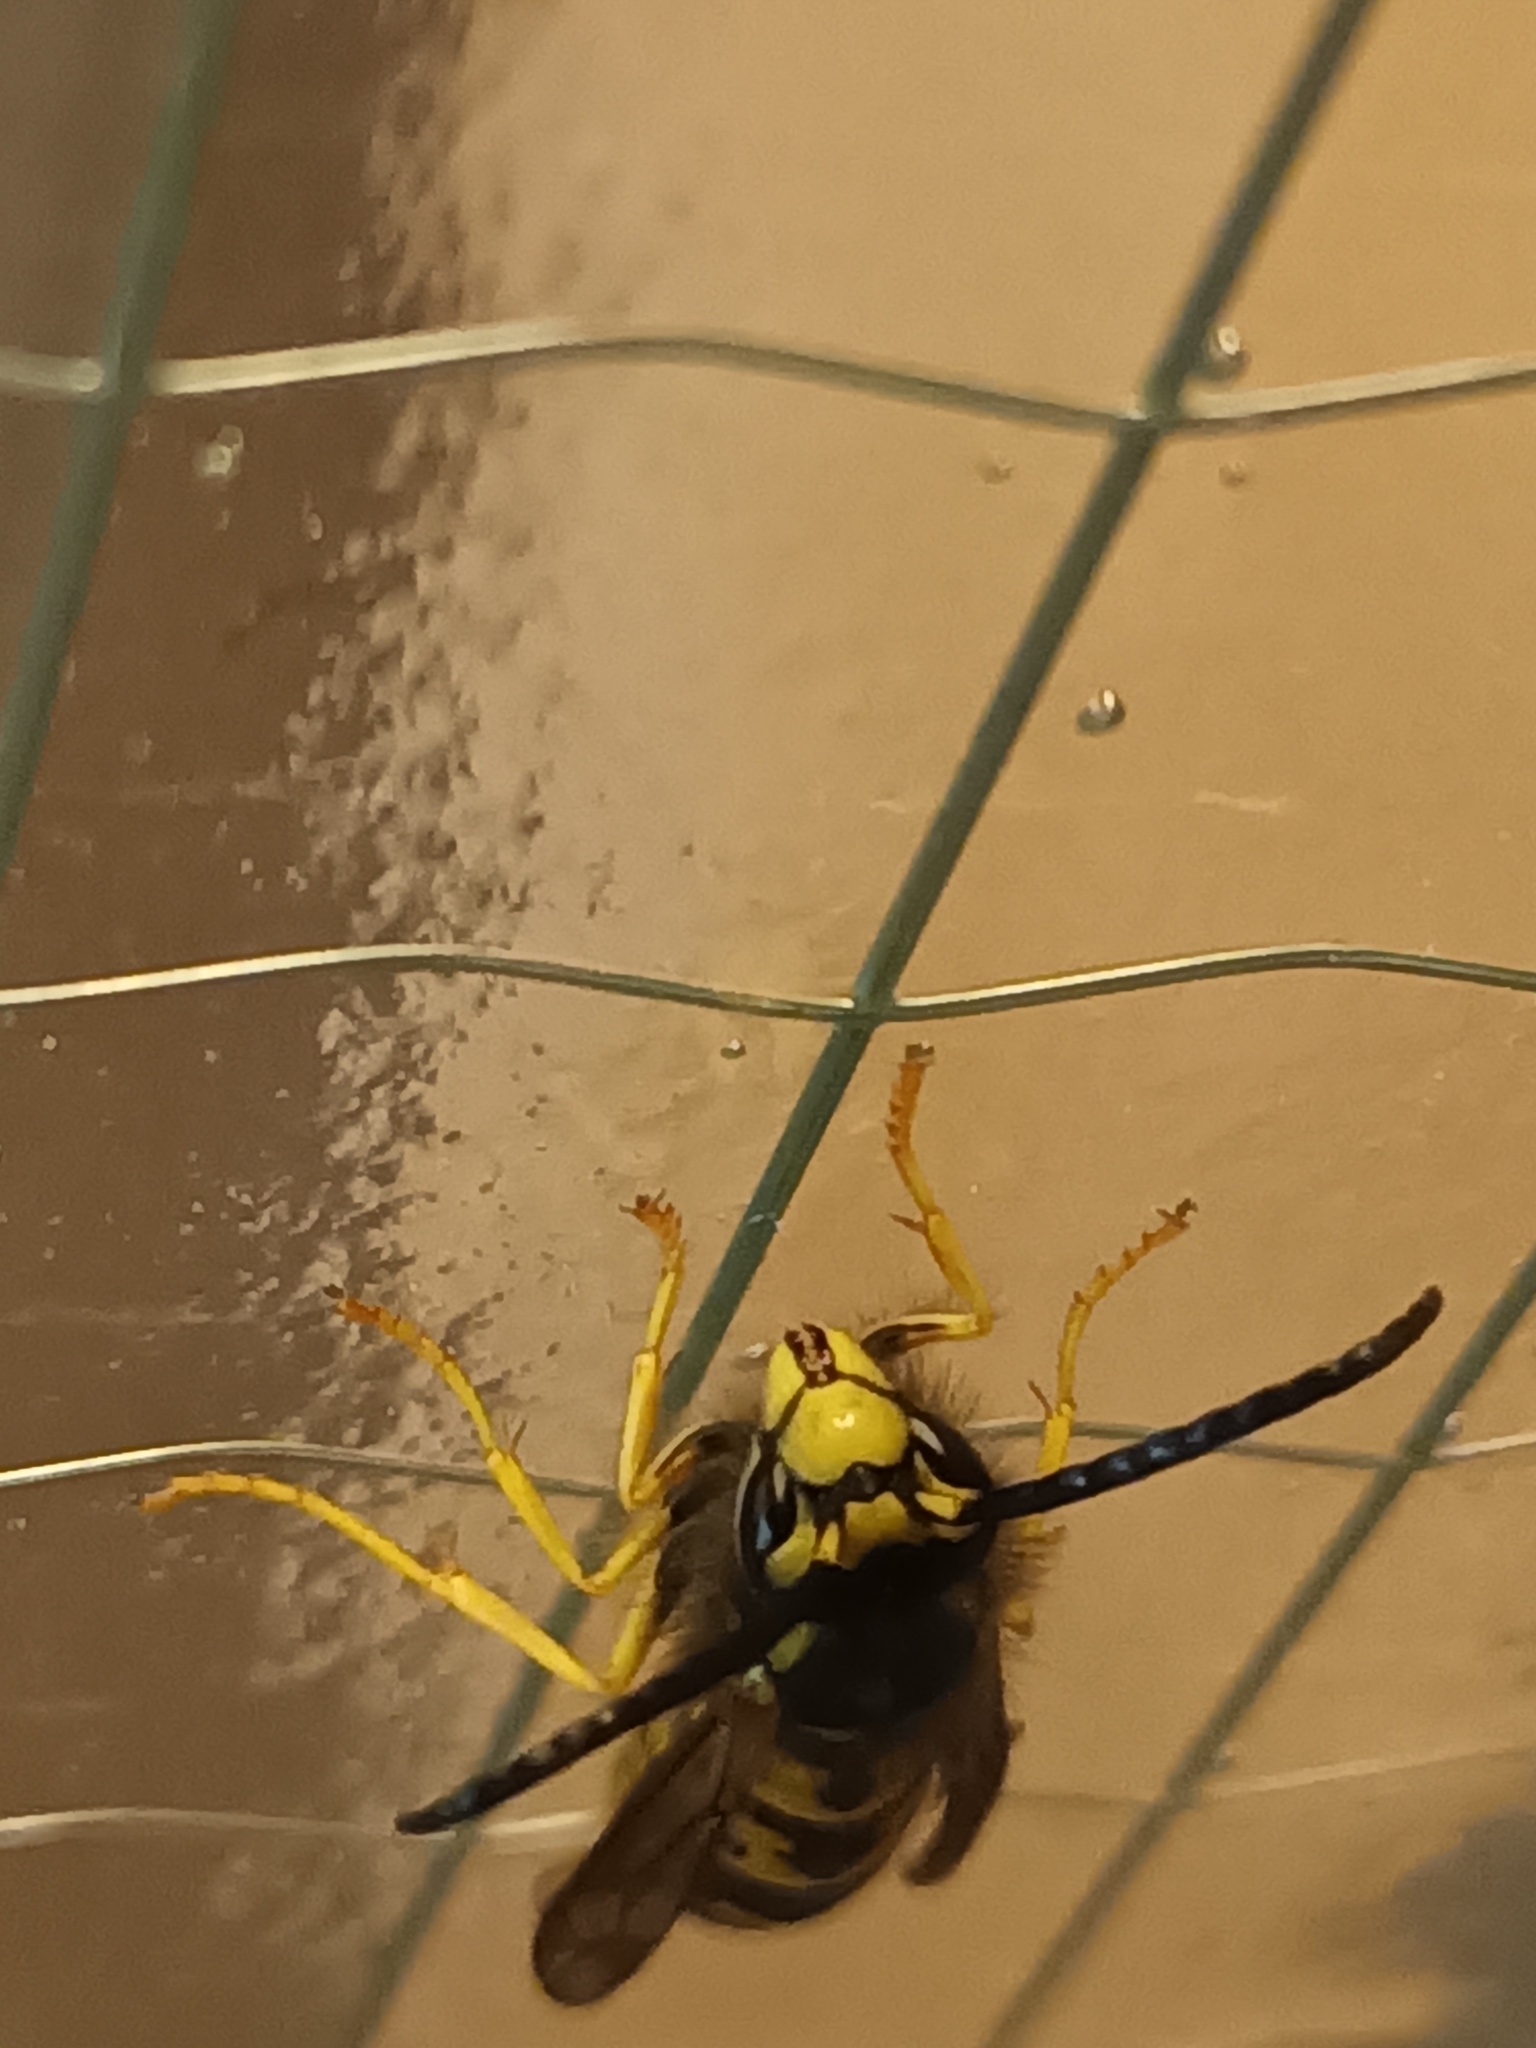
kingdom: Animalia
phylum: Arthropoda
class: Insecta
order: Hymenoptera
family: Vespidae
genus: Vespula
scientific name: Vespula germanica
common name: German wasp
